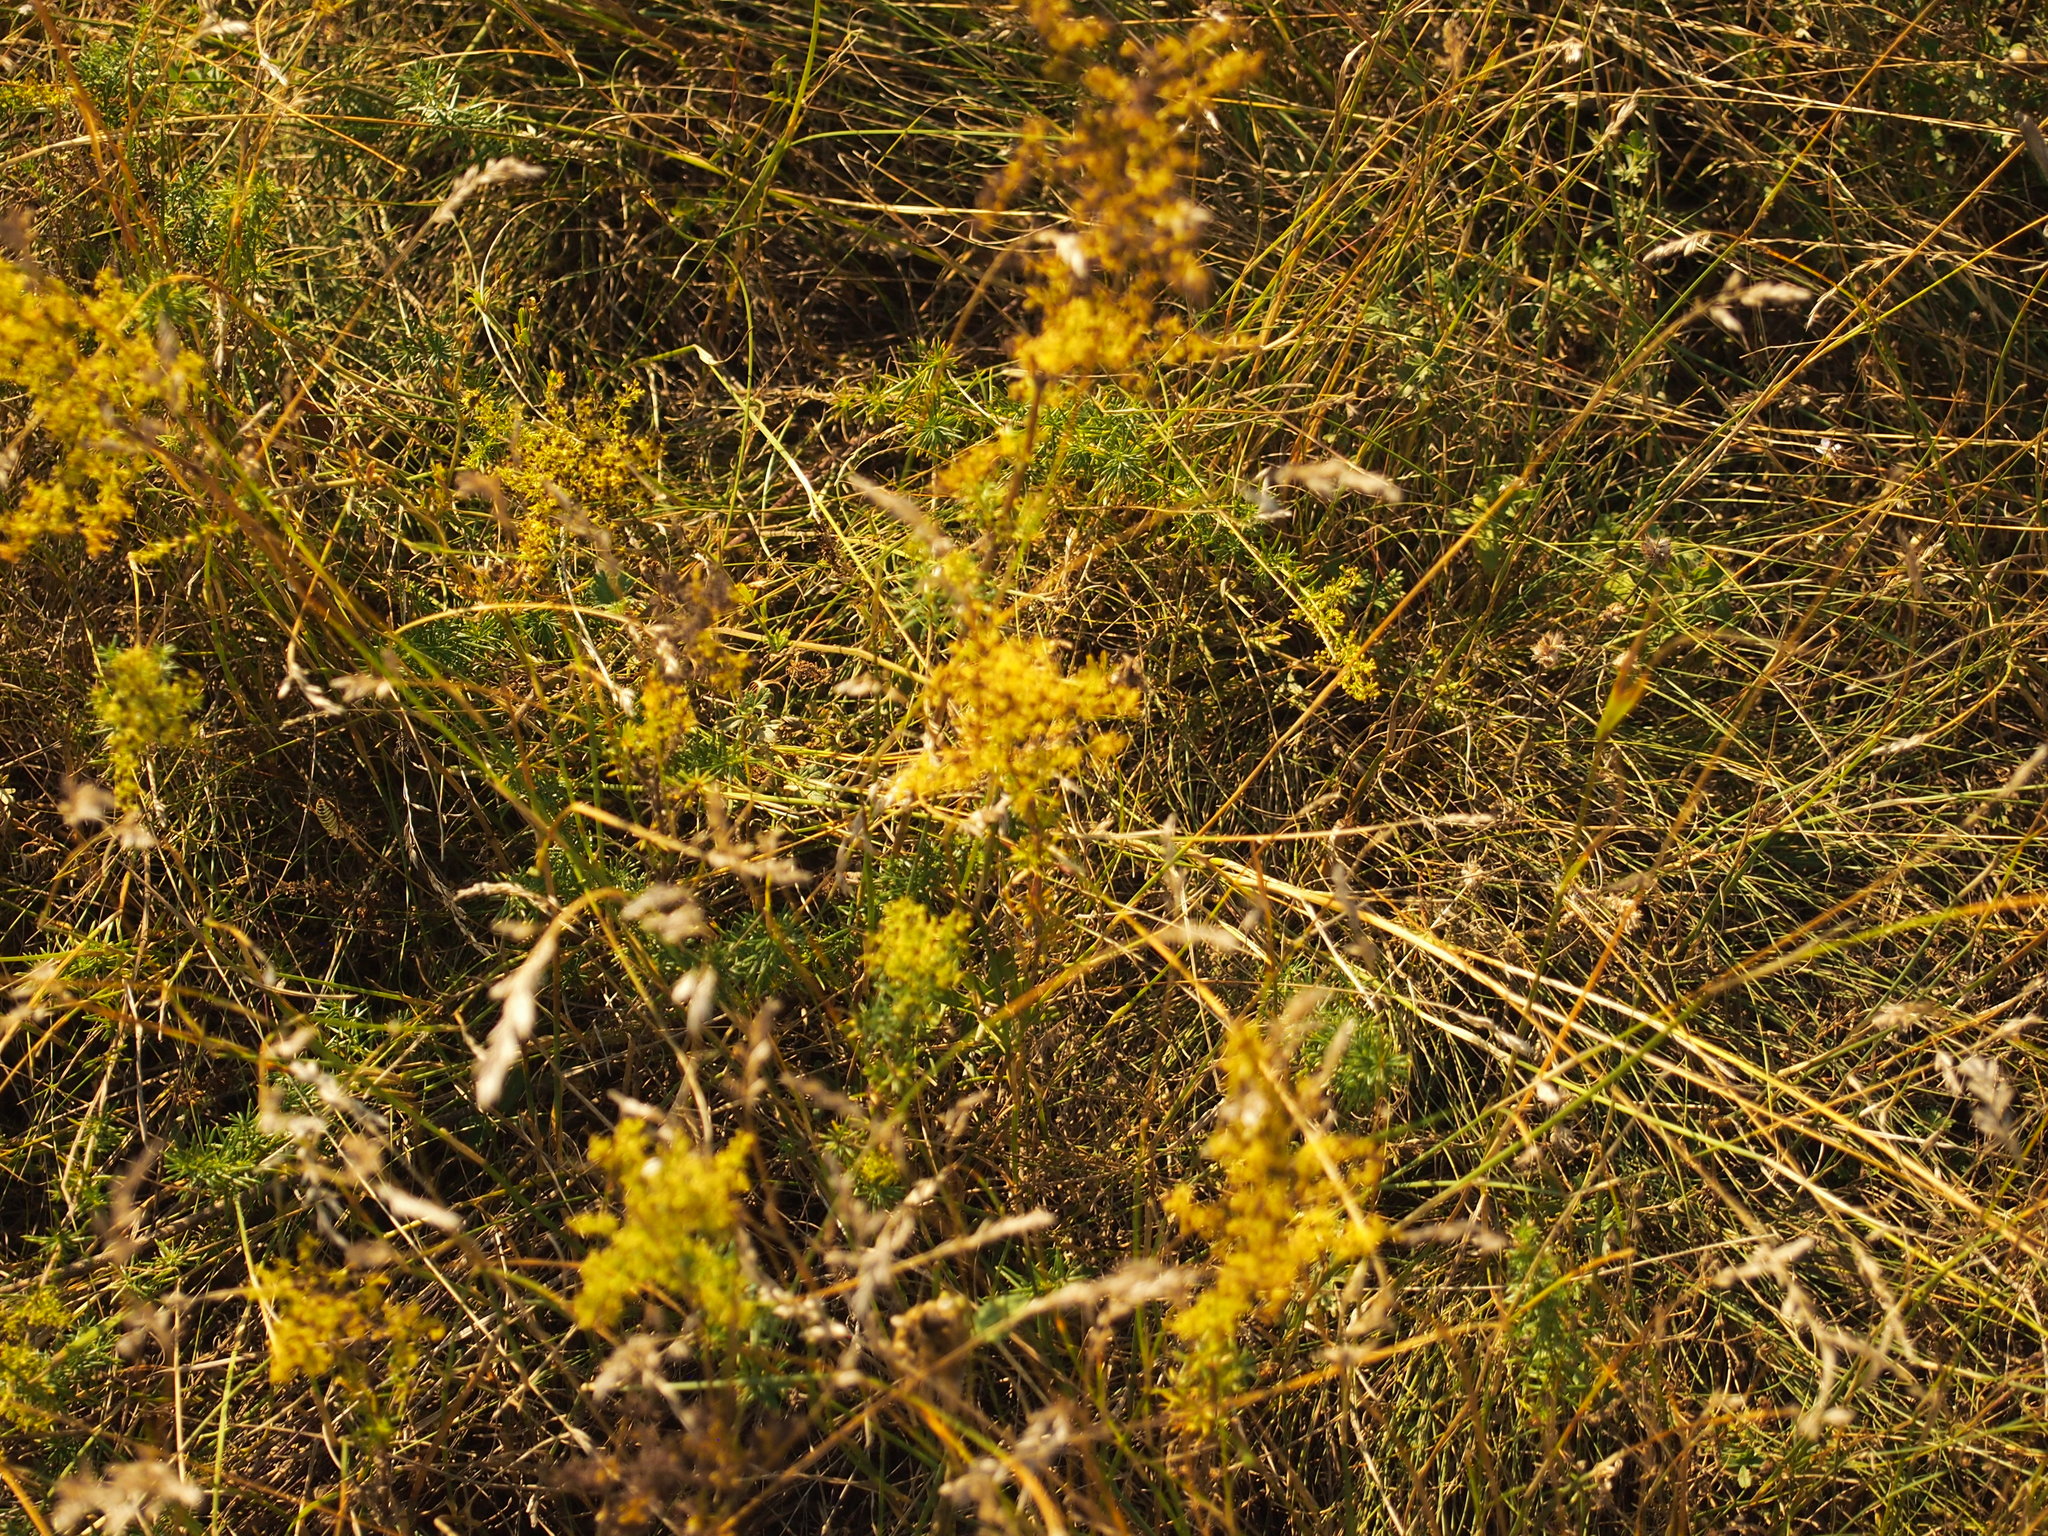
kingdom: Plantae
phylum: Tracheophyta
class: Magnoliopsida
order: Gentianales
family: Rubiaceae
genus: Galium
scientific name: Galium verum
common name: Lady's bedstraw
